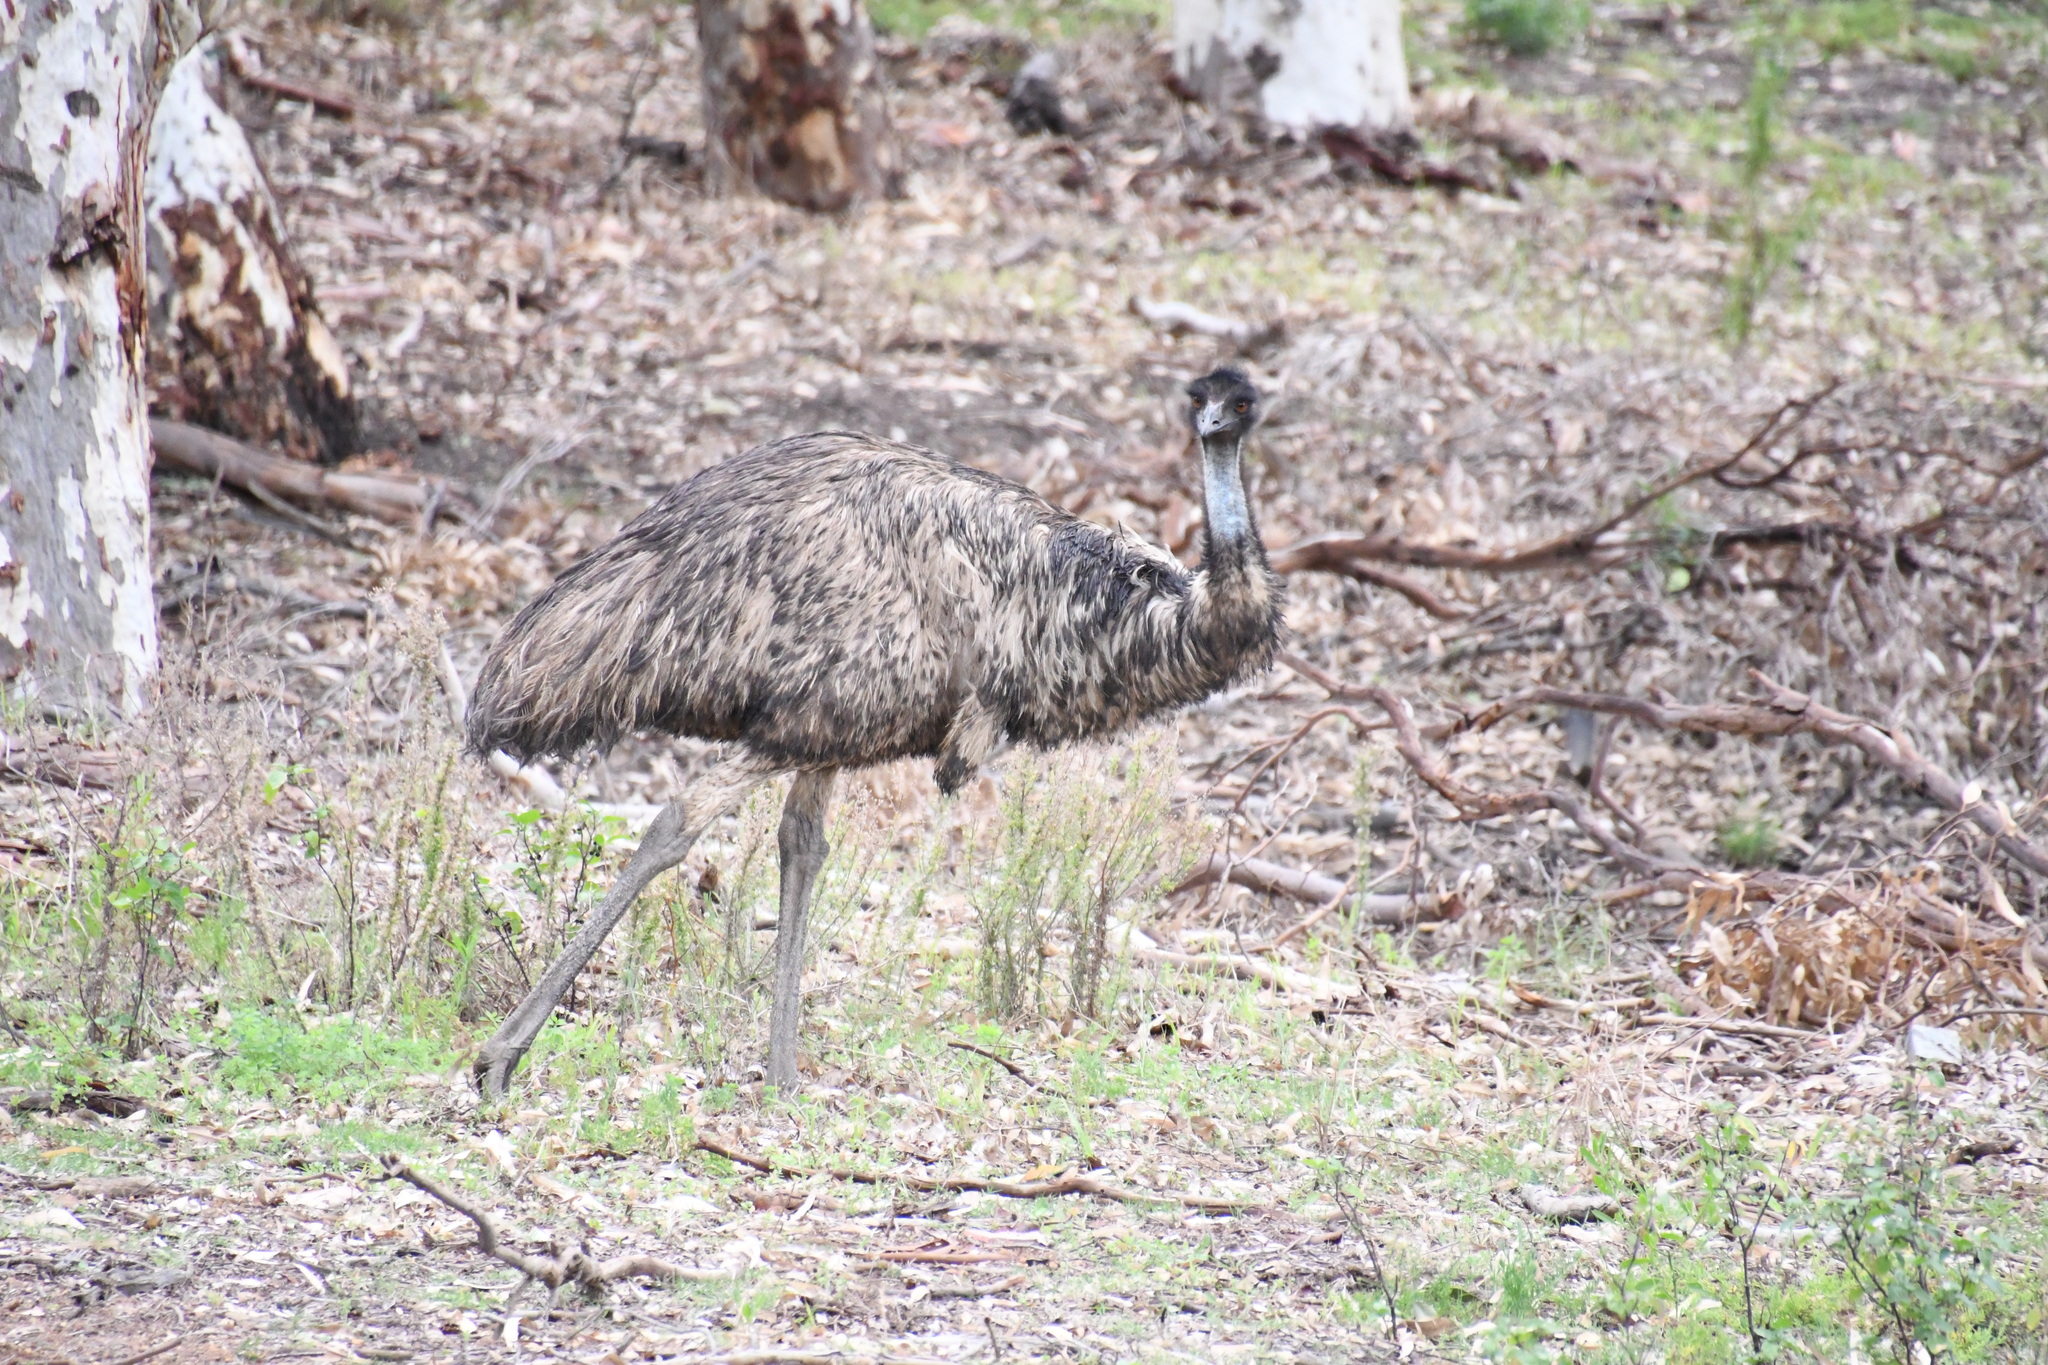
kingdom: Animalia
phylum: Chordata
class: Aves
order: Casuariiformes
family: Dromaiidae
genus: Dromaius
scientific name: Dromaius novaehollandiae
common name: Emu
